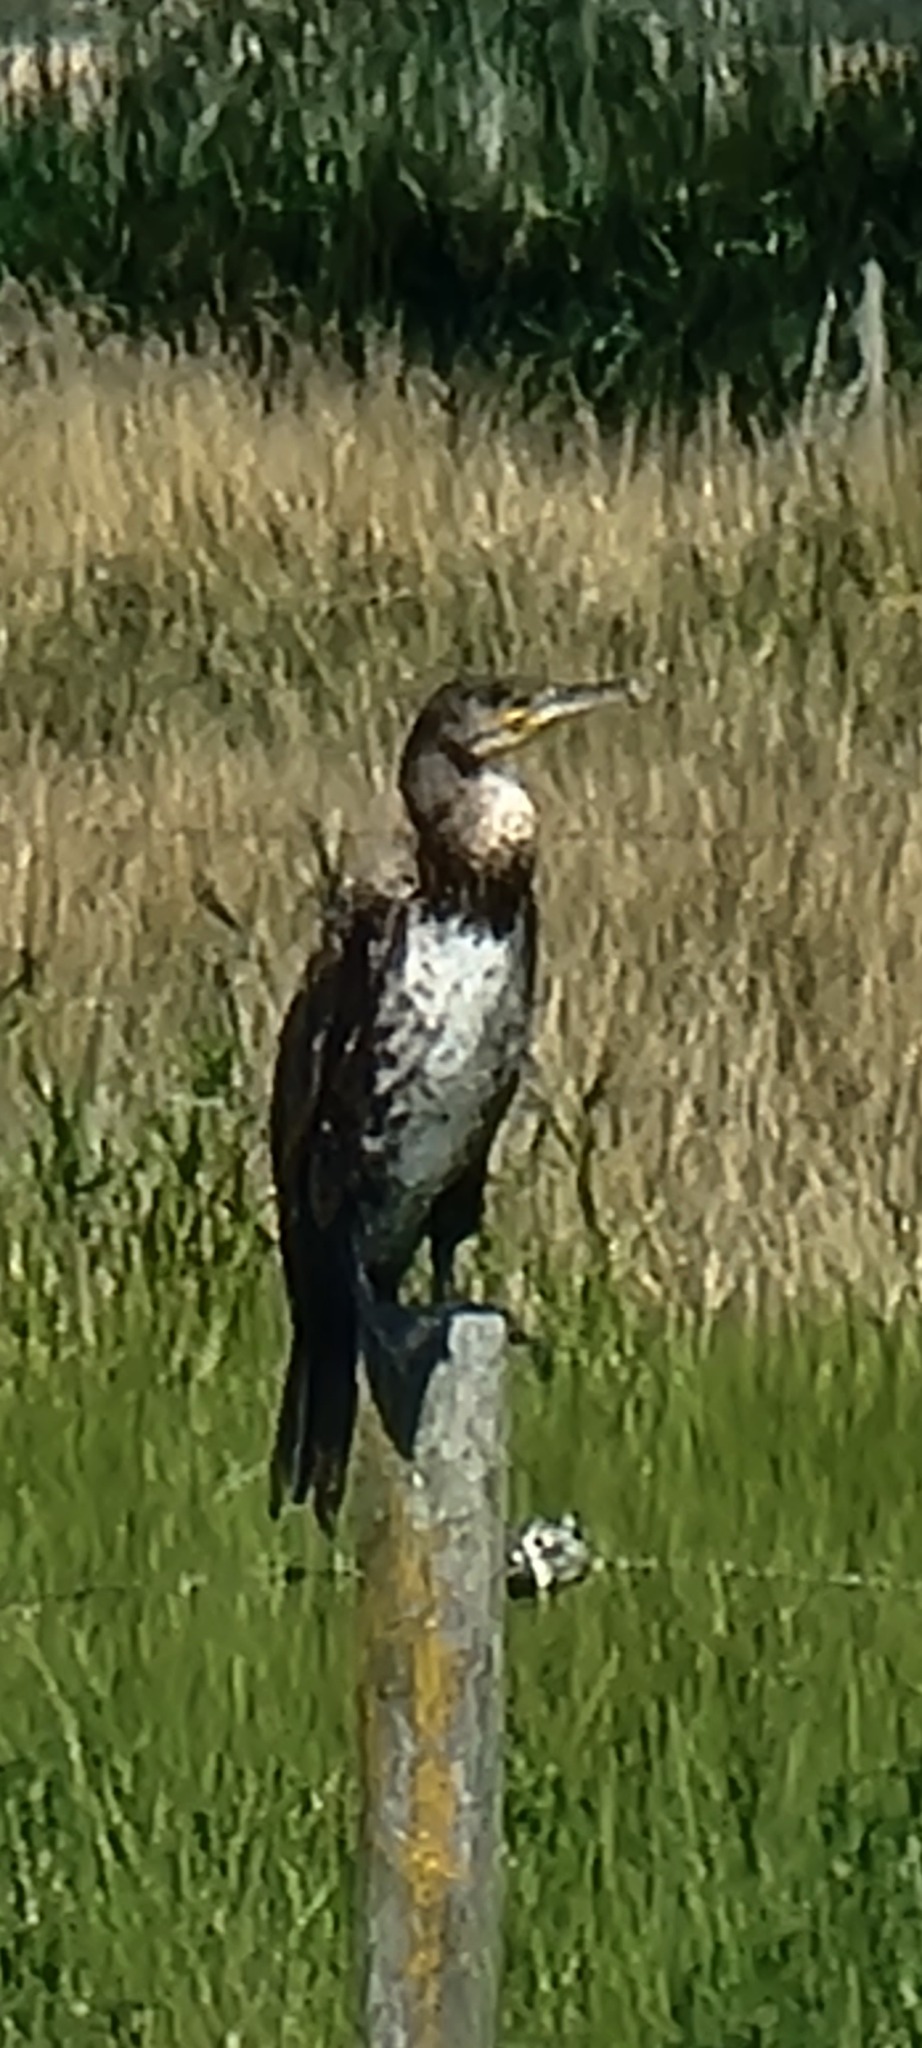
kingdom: Animalia
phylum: Chordata
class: Aves
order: Suliformes
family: Phalacrocoracidae
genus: Phalacrocorax
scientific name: Phalacrocorax carbo
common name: Great cormorant
